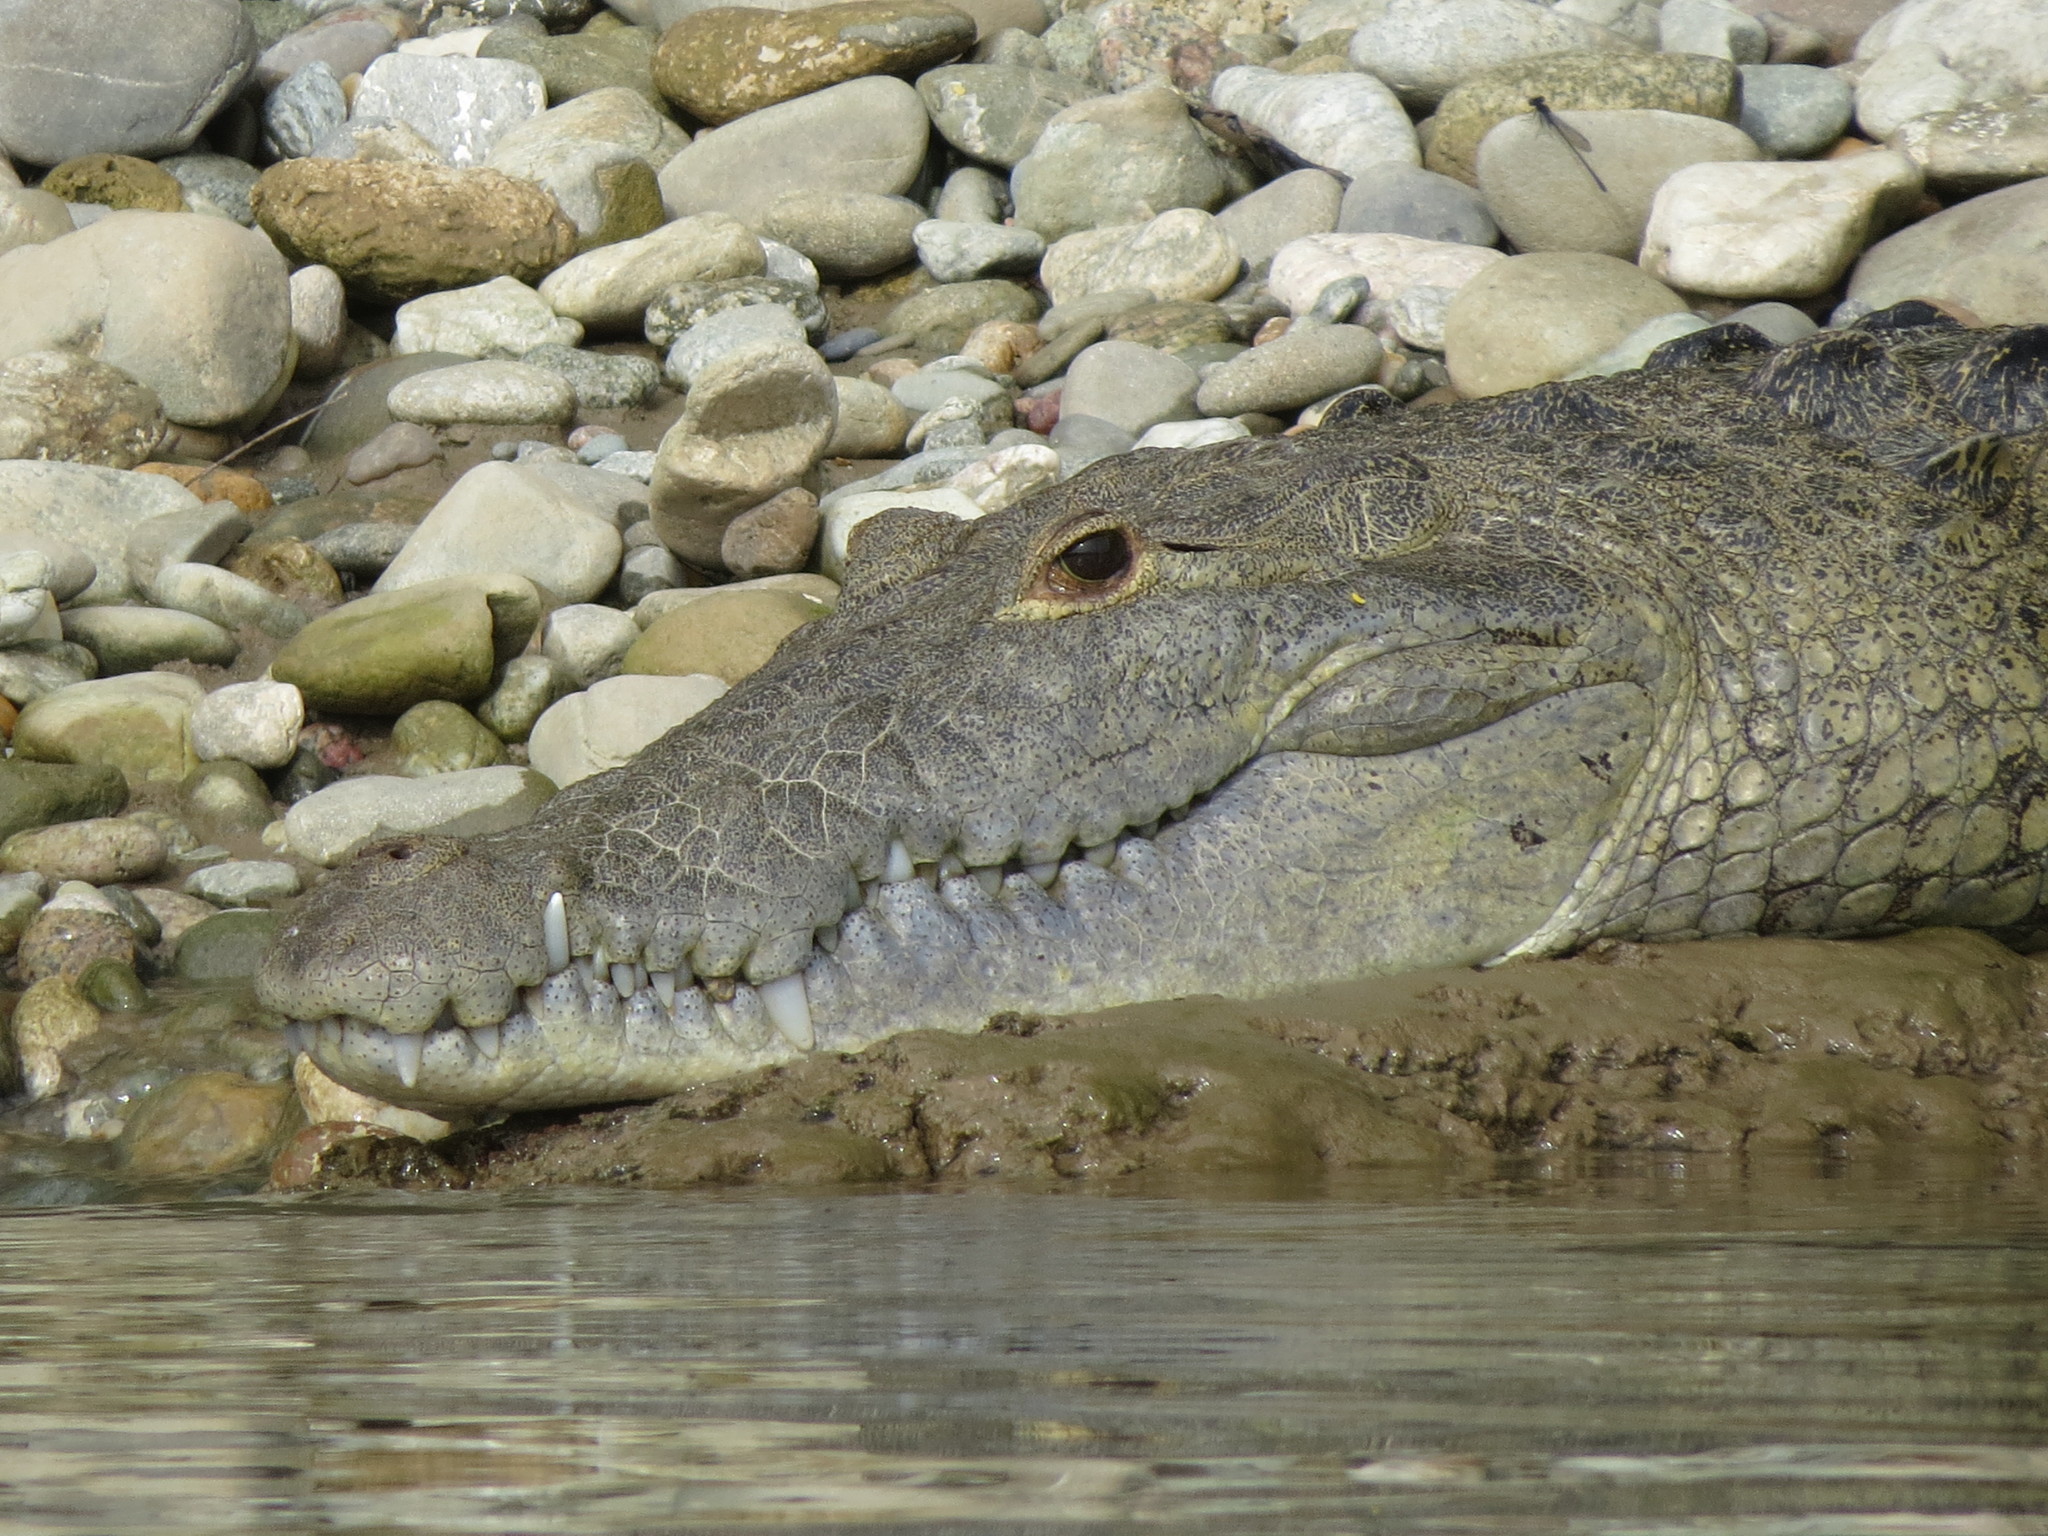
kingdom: Animalia
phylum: Chordata
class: Crocodylia
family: Crocodylidae
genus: Crocodylus
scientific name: Crocodylus moreletii
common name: Morelet's crocodile
